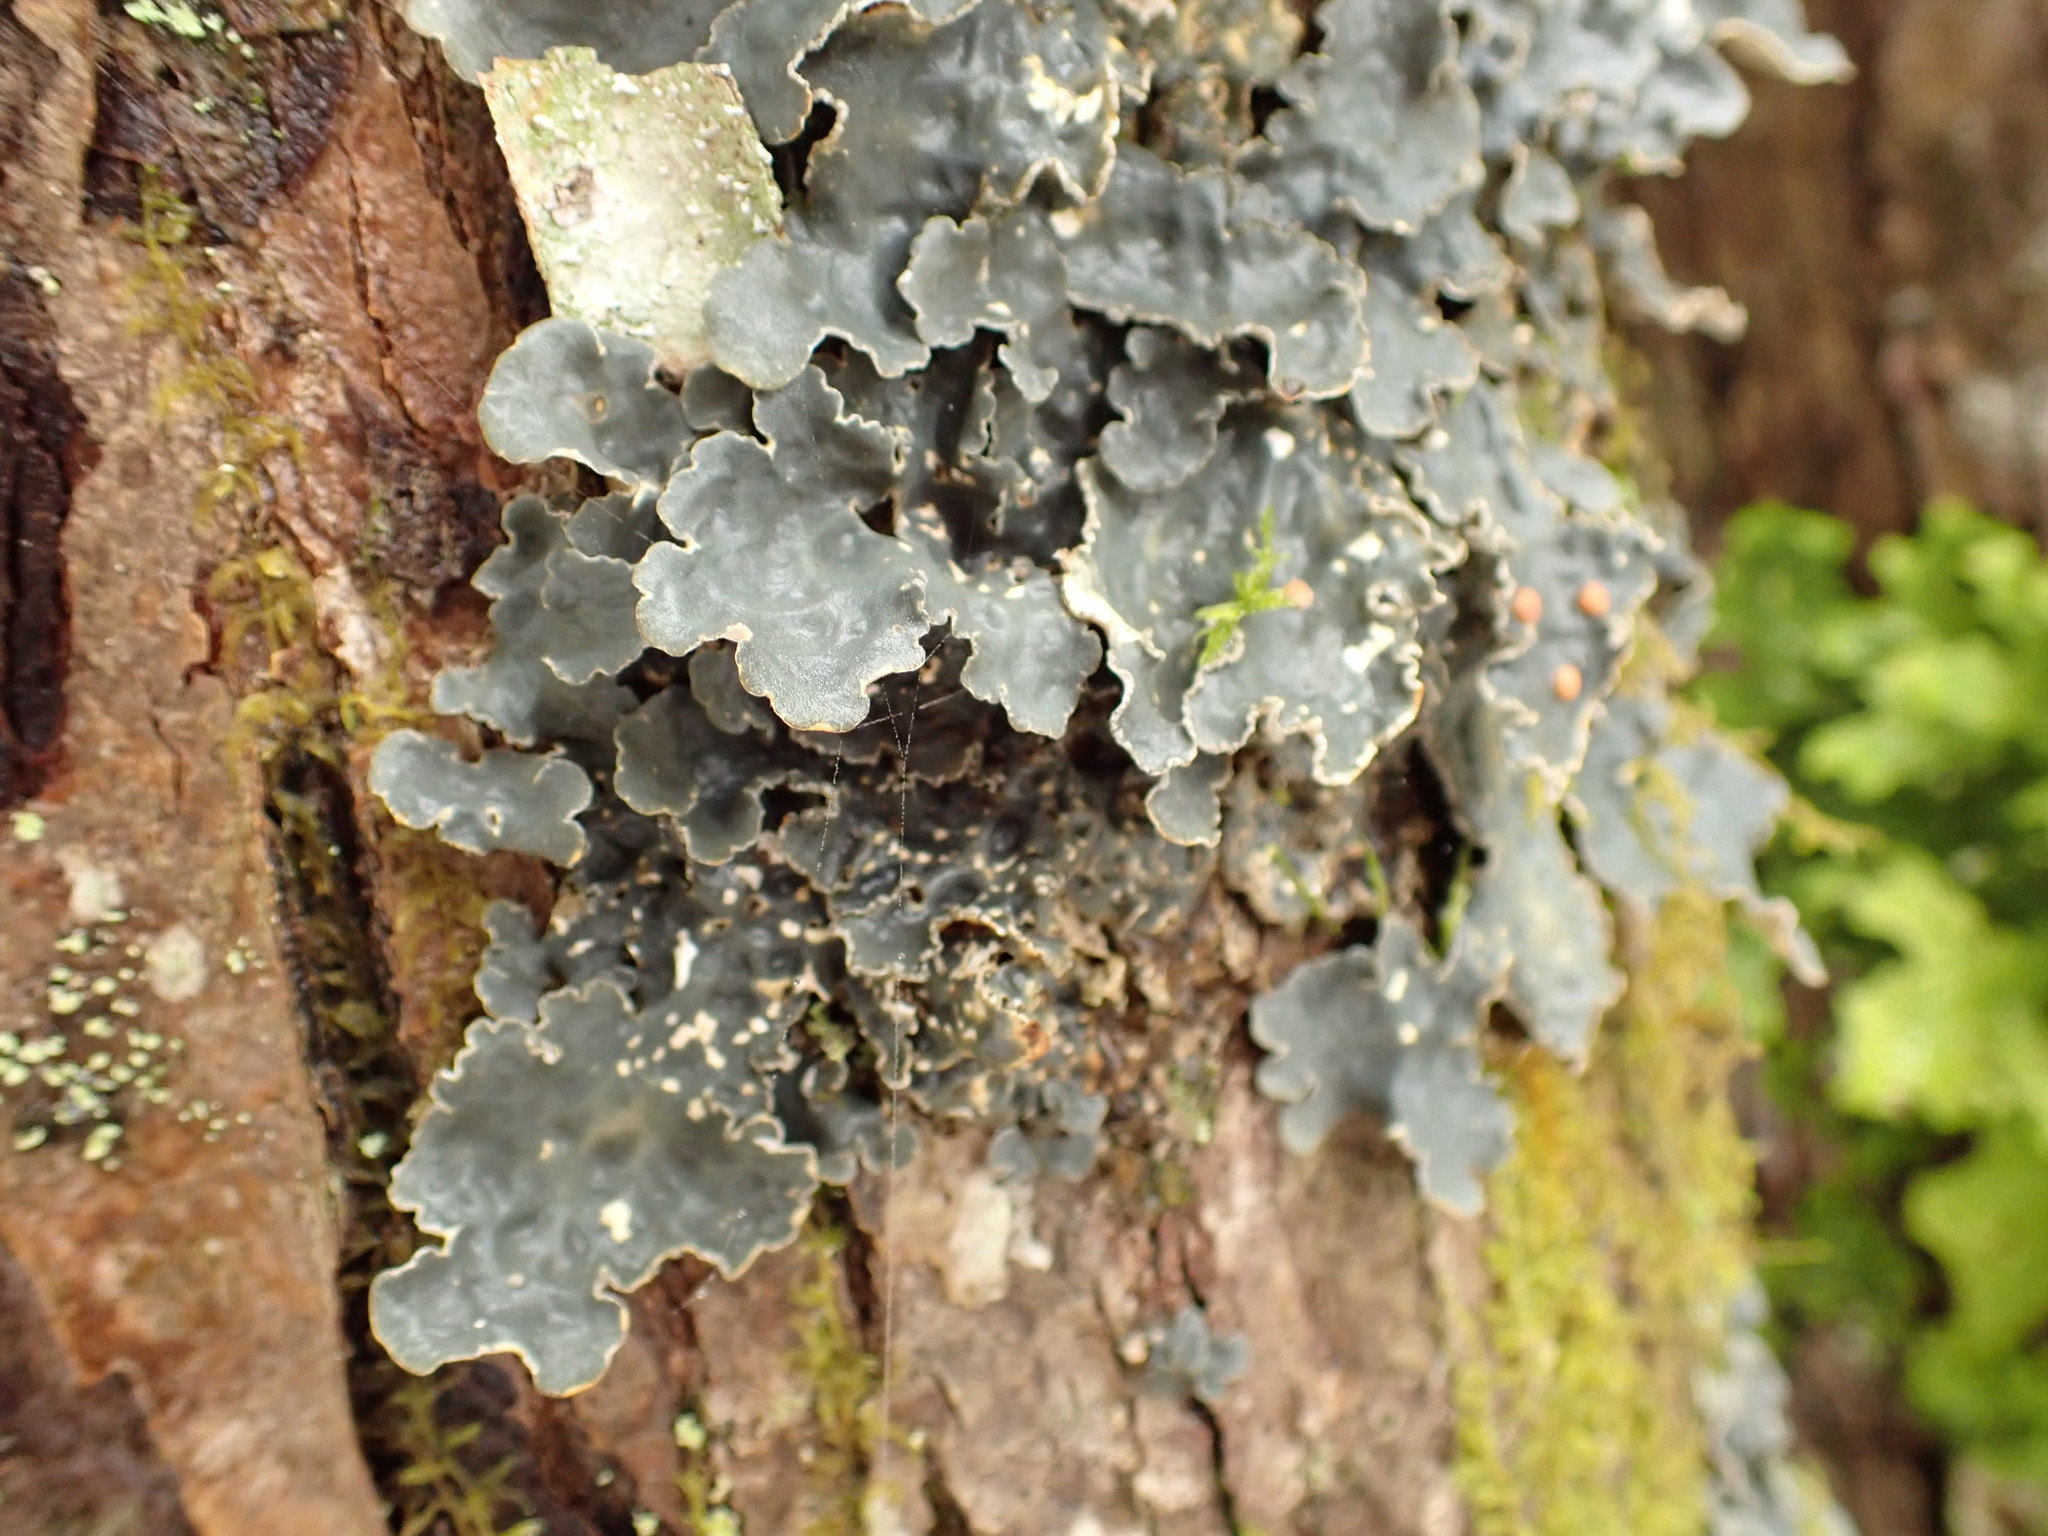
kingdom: Fungi
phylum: Ascomycota
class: Lecanoromycetes
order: Peltigerales
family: Lobariaceae
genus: Lobarina
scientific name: Lobarina scrobiculata
